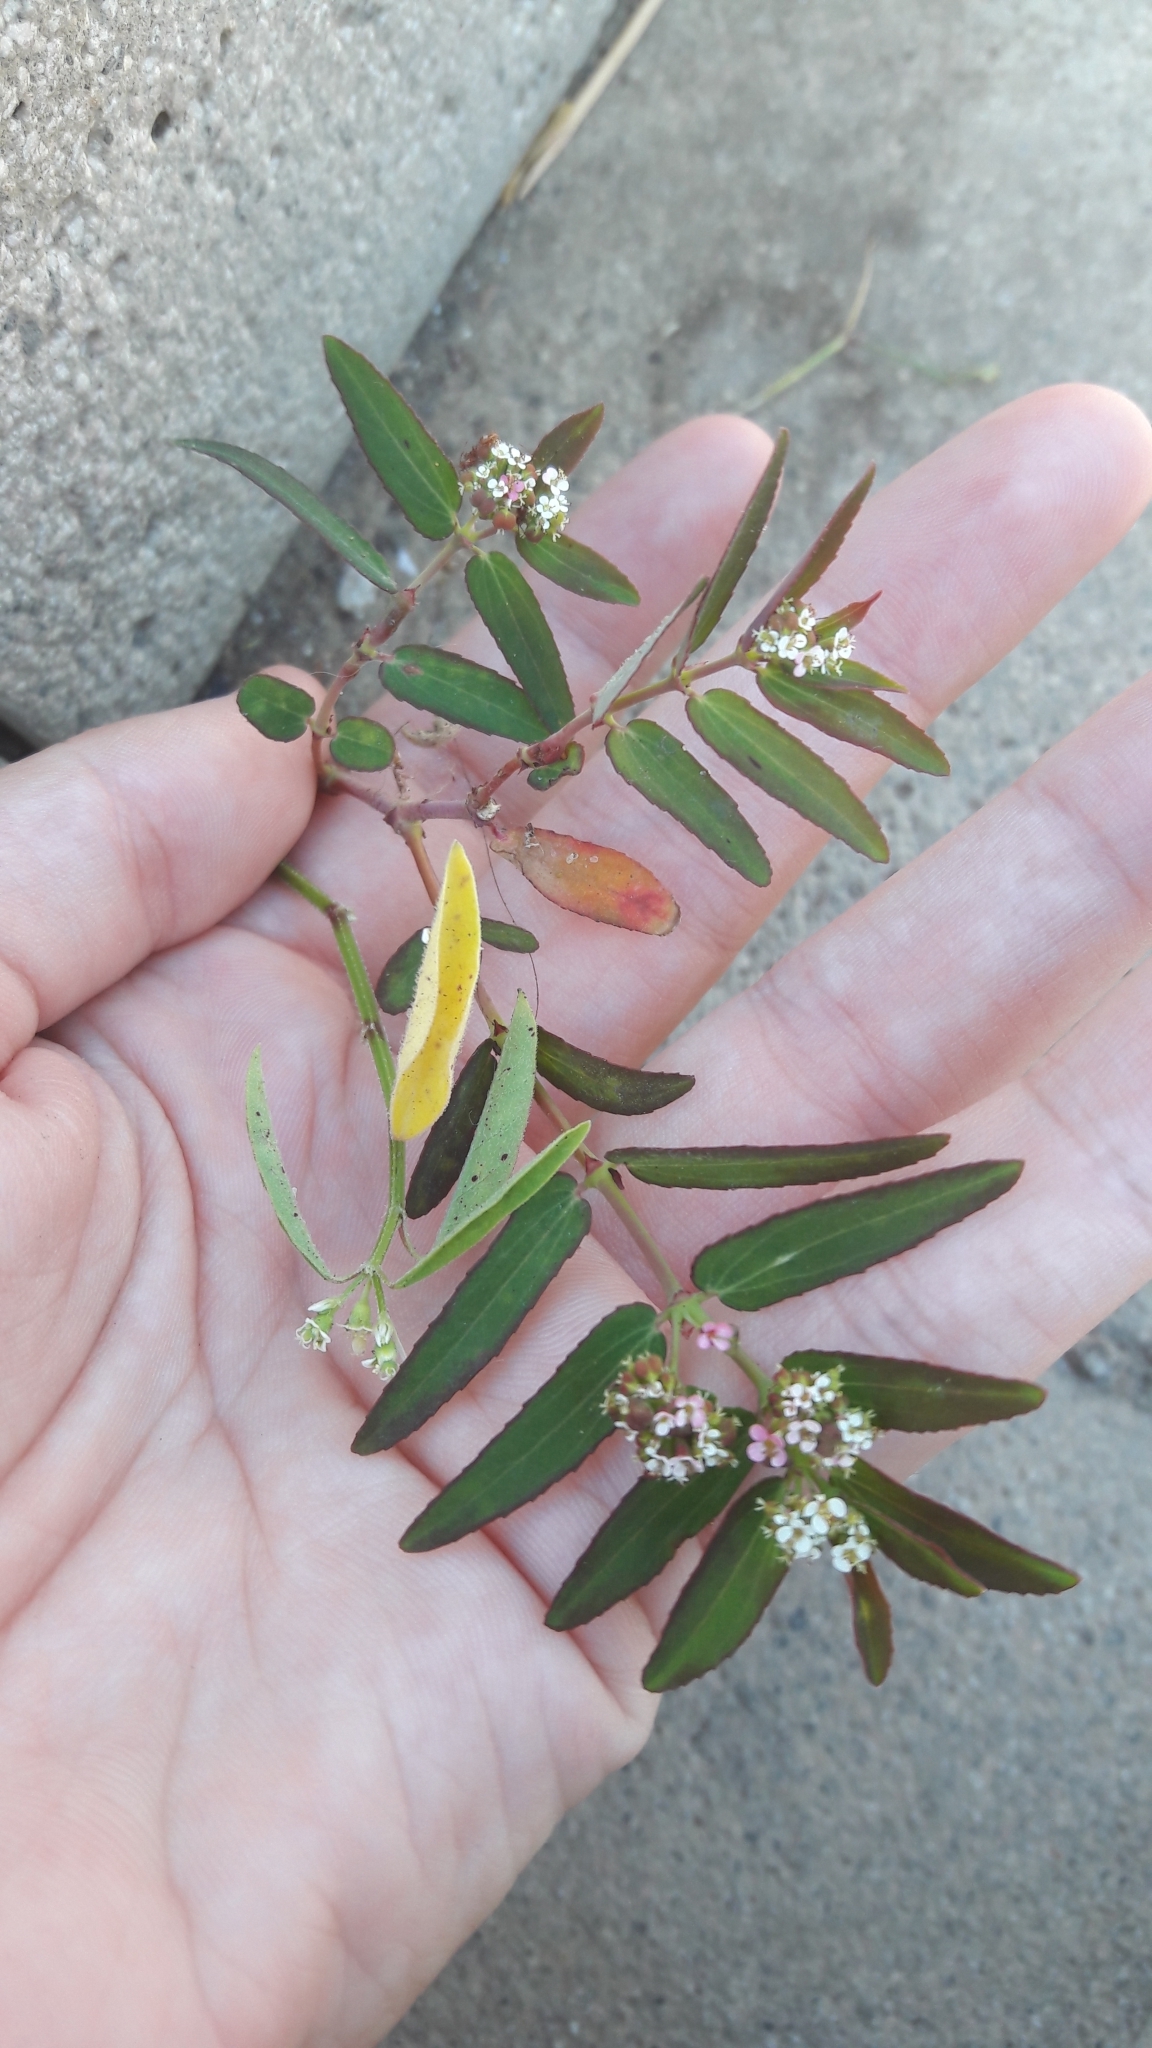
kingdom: Plantae
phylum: Tracheophyta
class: Magnoliopsida
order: Malpighiales
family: Euphorbiaceae
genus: Euphorbia
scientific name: Euphorbia hypericifolia
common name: Graceful sandmat
